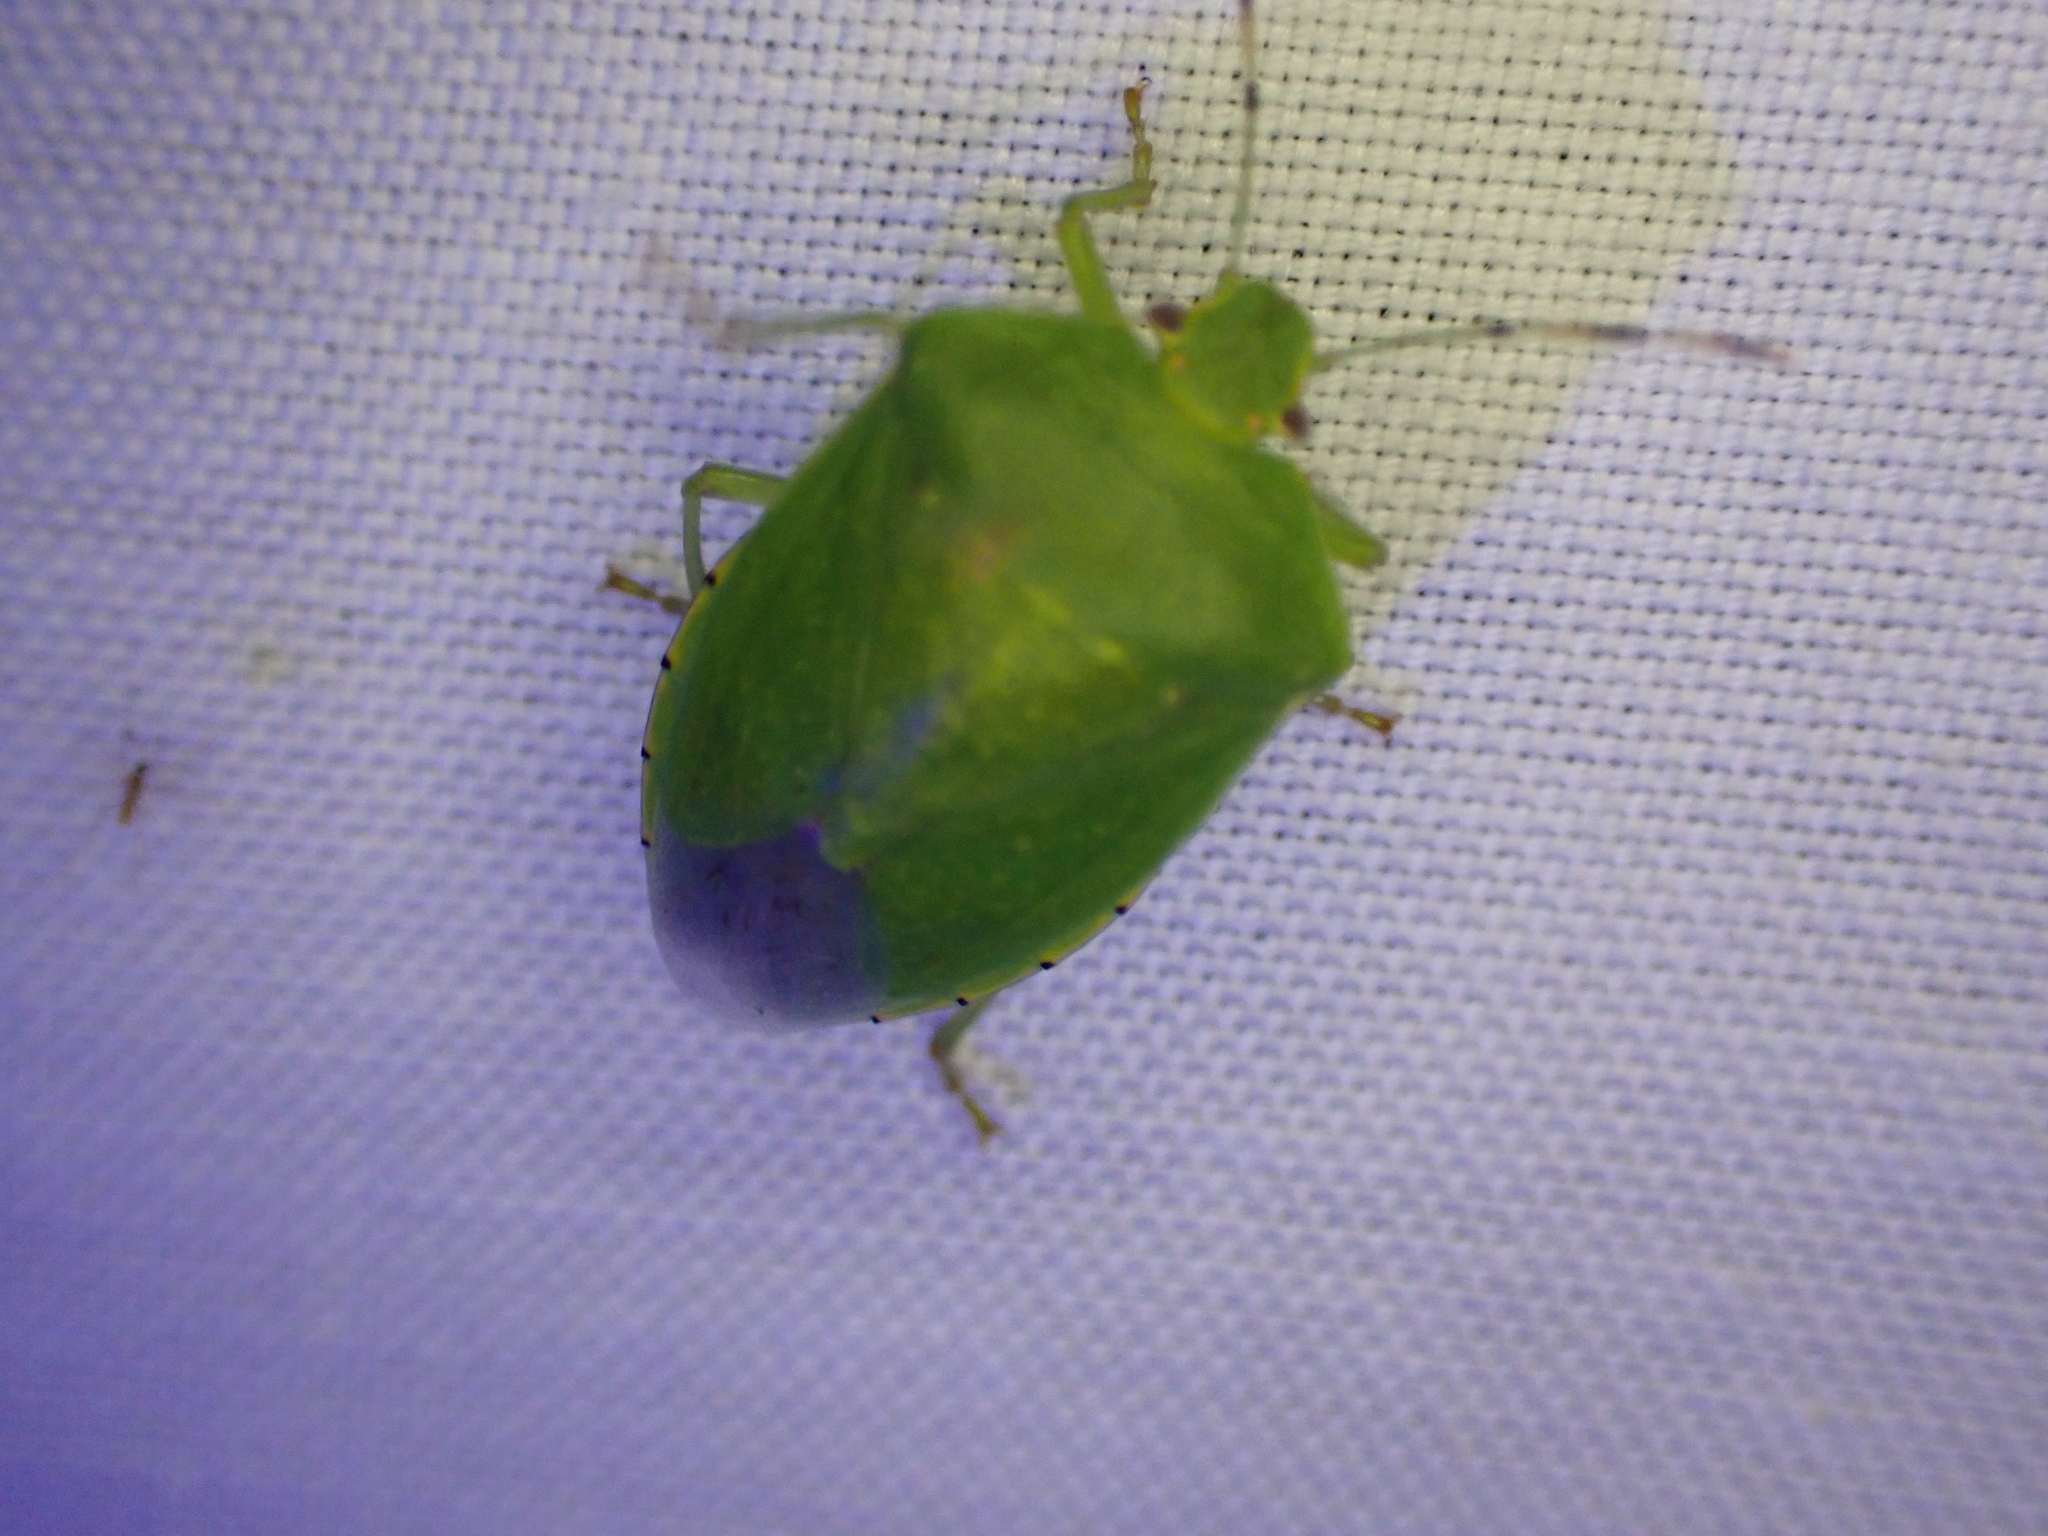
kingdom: Animalia
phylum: Arthropoda
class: Insecta
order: Hemiptera
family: Pentatomidae
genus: Chinavia
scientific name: Chinavia hilaris
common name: Green stink bug
